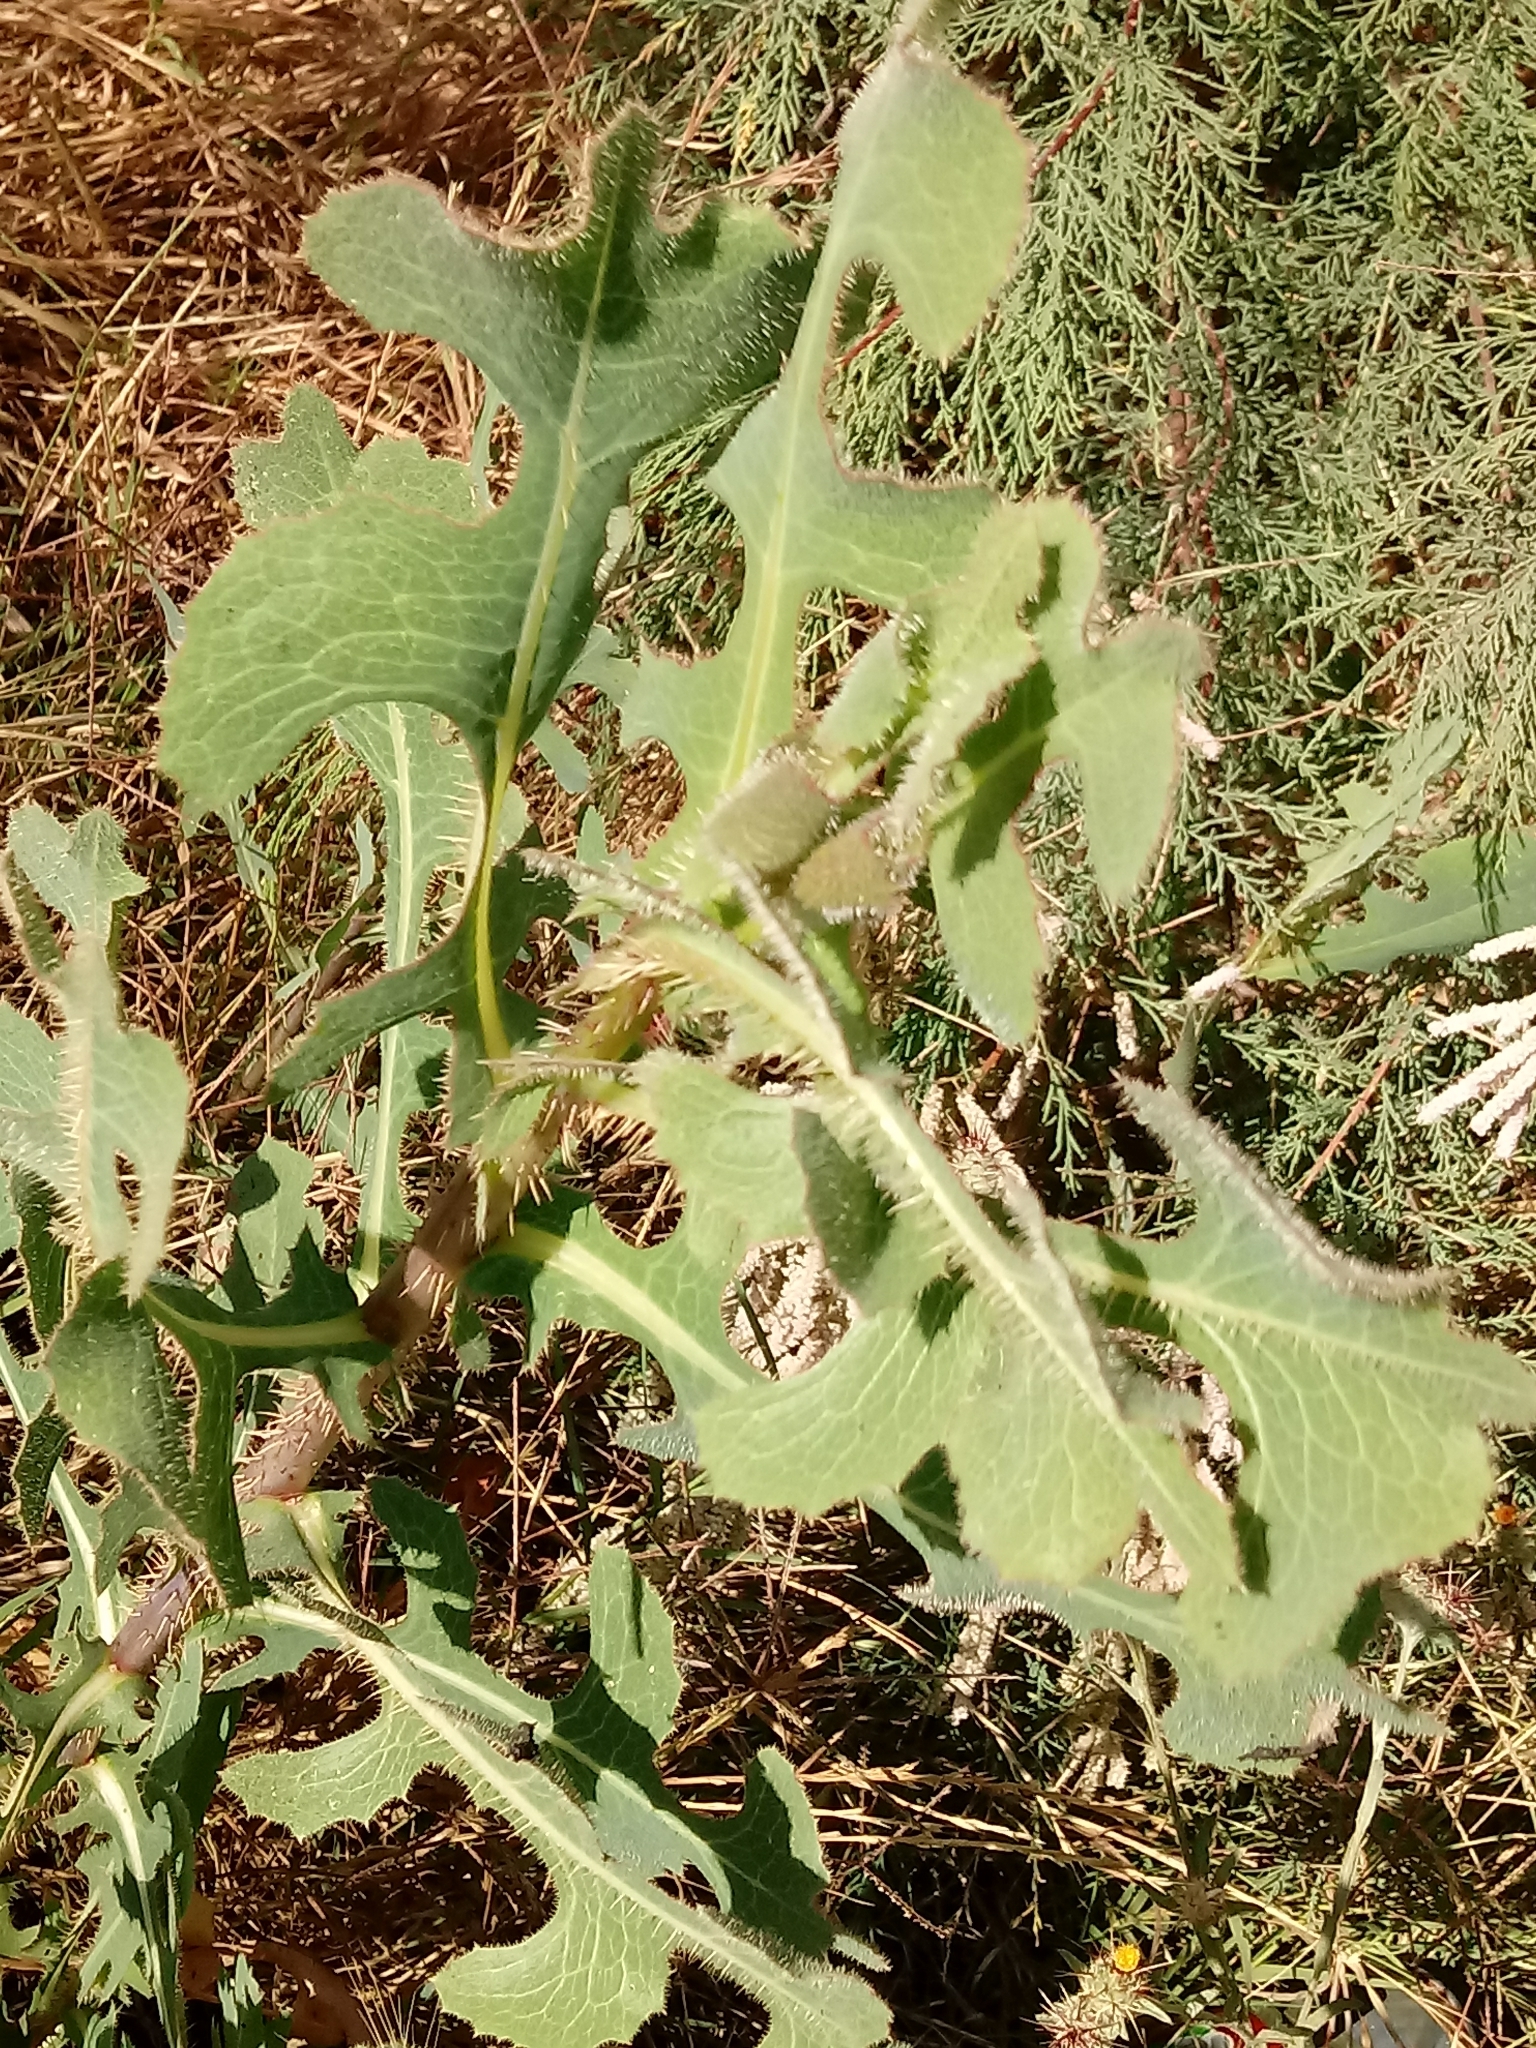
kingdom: Plantae
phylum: Tracheophyta
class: Magnoliopsida
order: Asterales
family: Asteraceae
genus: Lactuca
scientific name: Lactuca serriola
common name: Prickly lettuce
